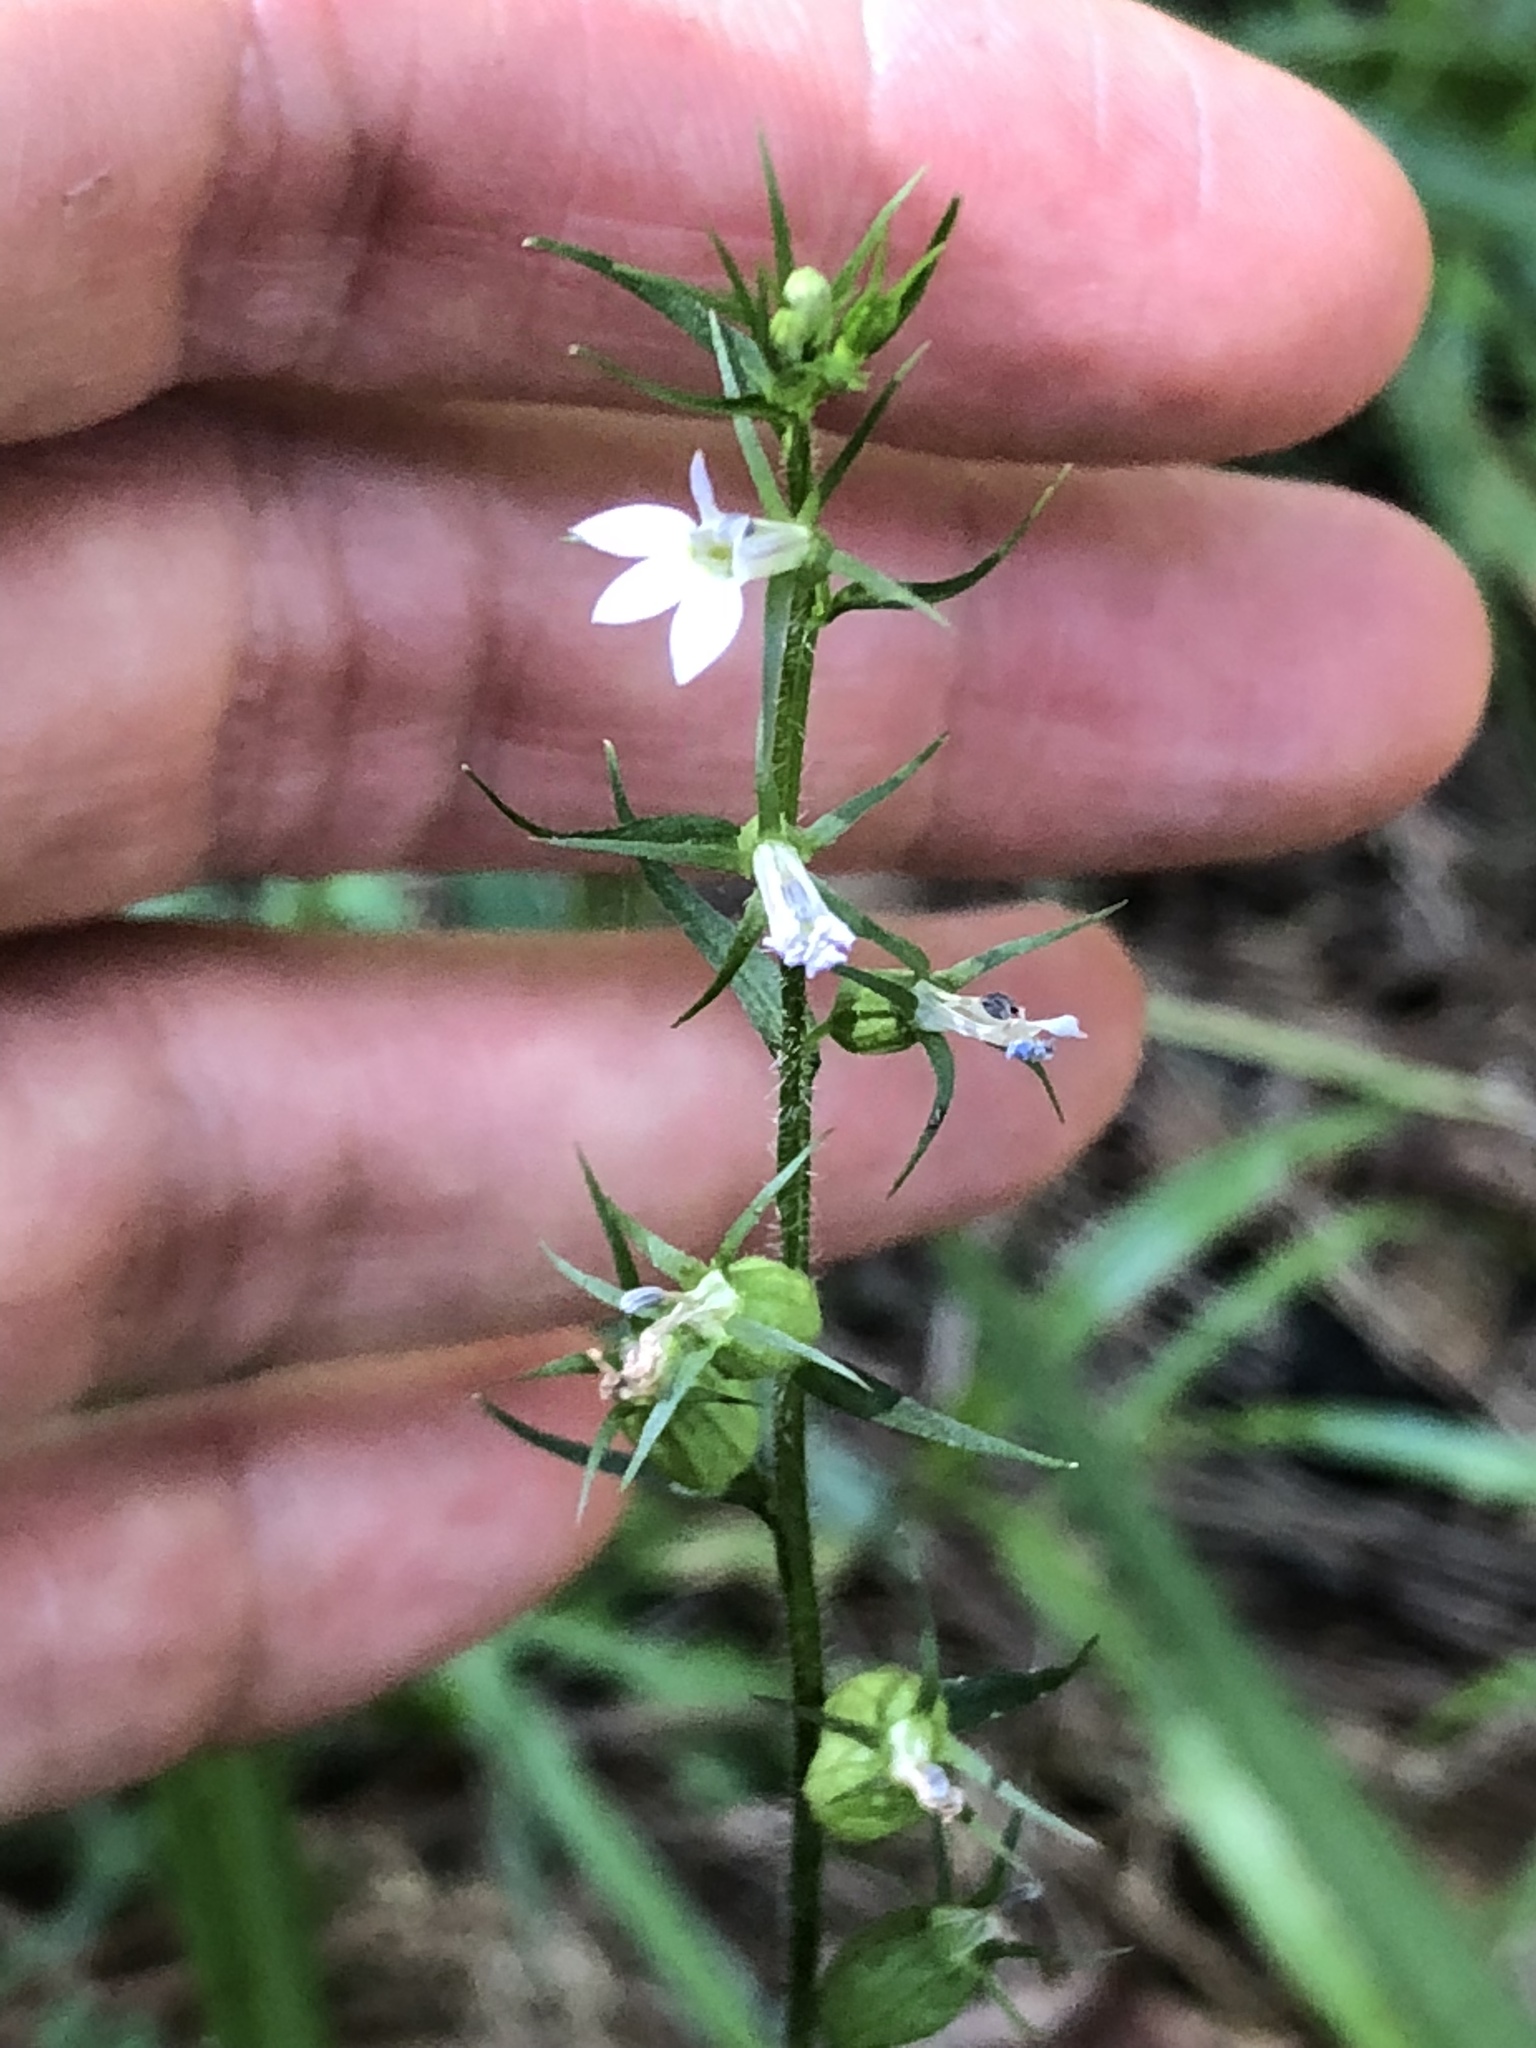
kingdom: Plantae
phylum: Tracheophyta
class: Magnoliopsida
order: Asterales
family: Campanulaceae
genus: Lobelia
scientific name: Lobelia inflata
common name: Indian tobacco
